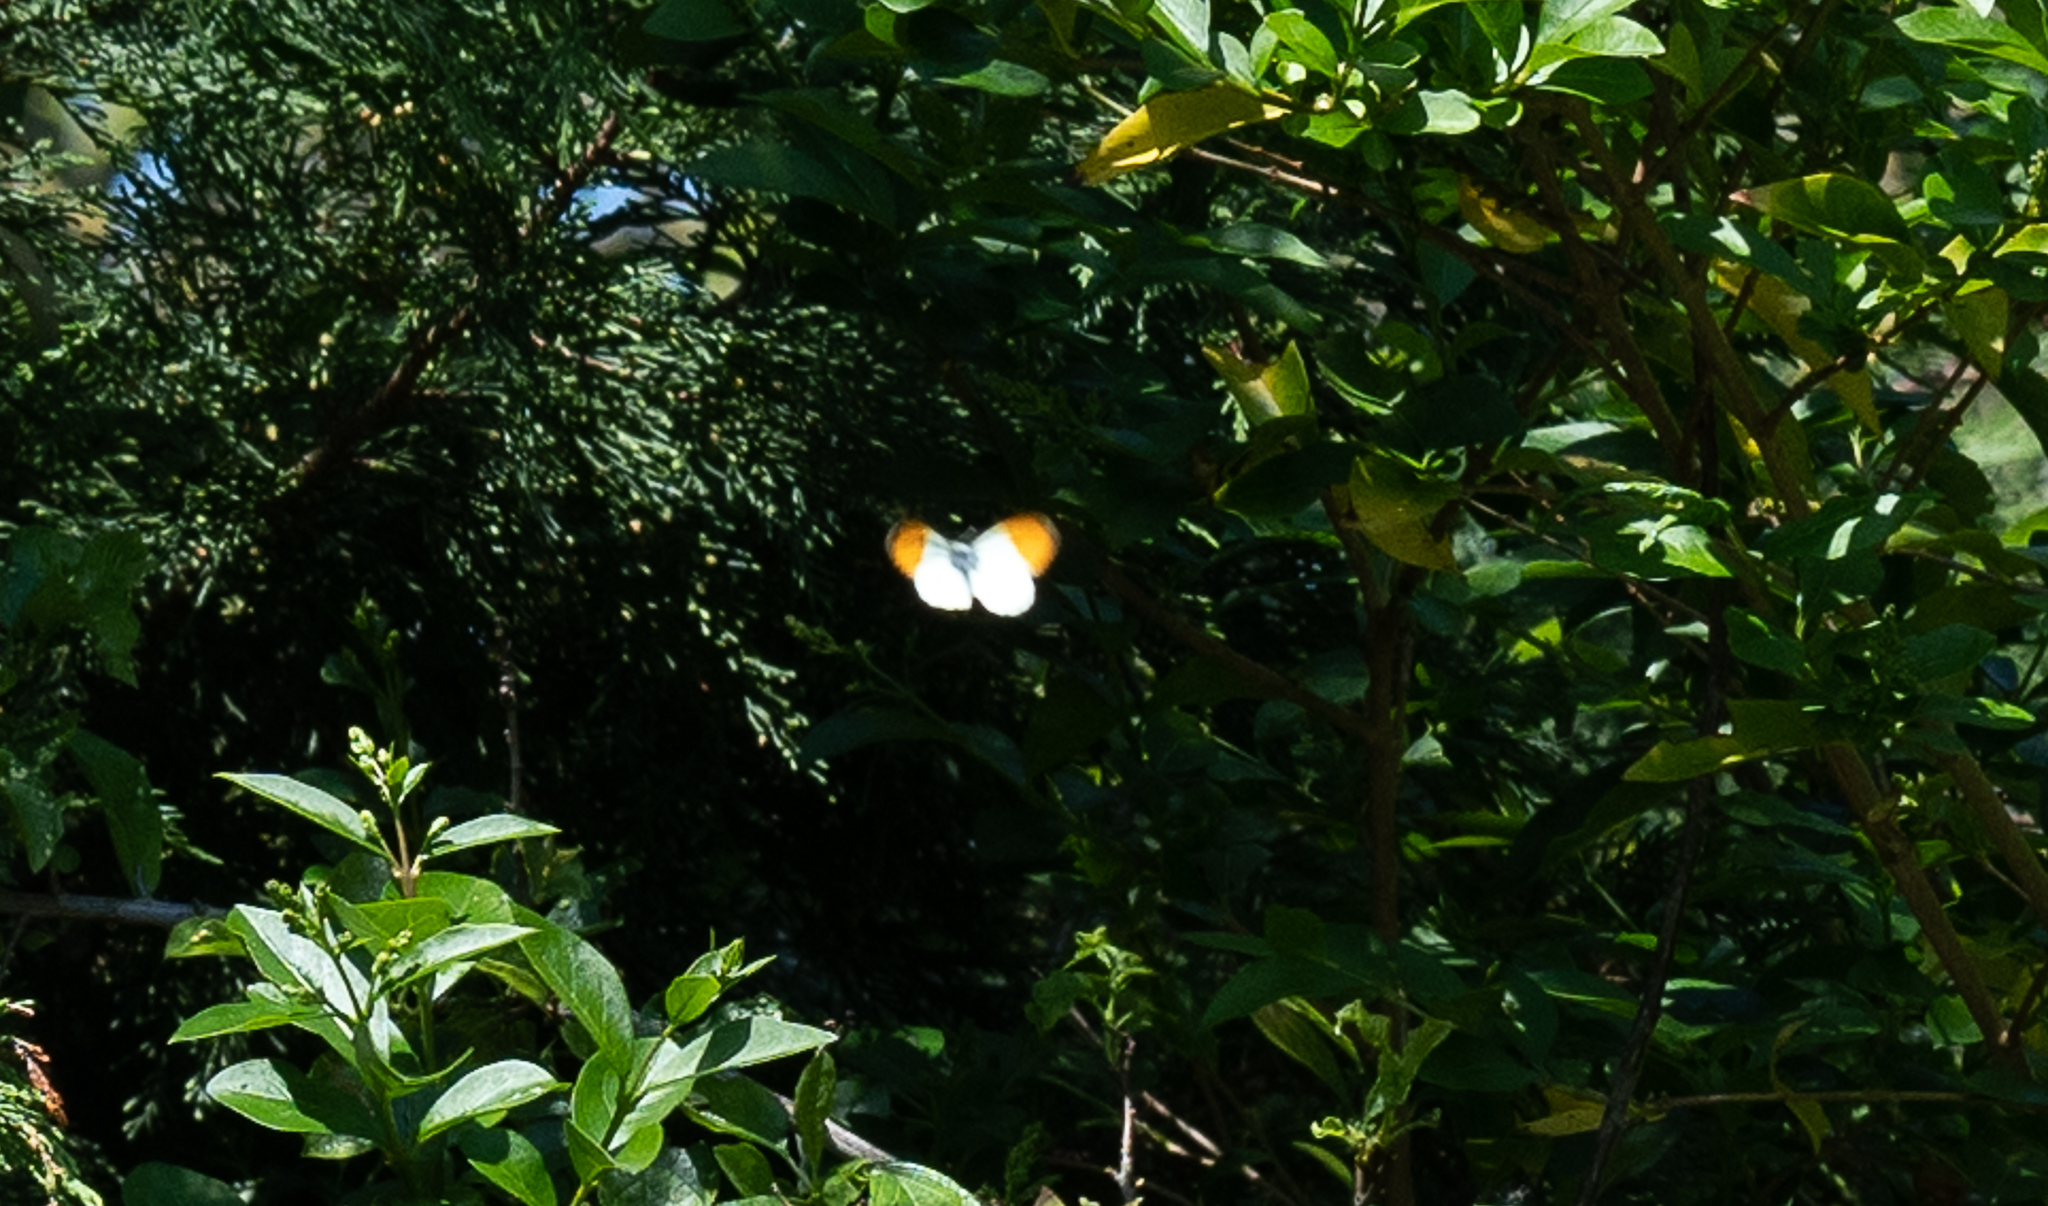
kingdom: Animalia
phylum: Arthropoda
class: Insecta
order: Lepidoptera
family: Pieridae
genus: Anthocharis
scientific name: Anthocharis cardamines
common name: Orange-tip
